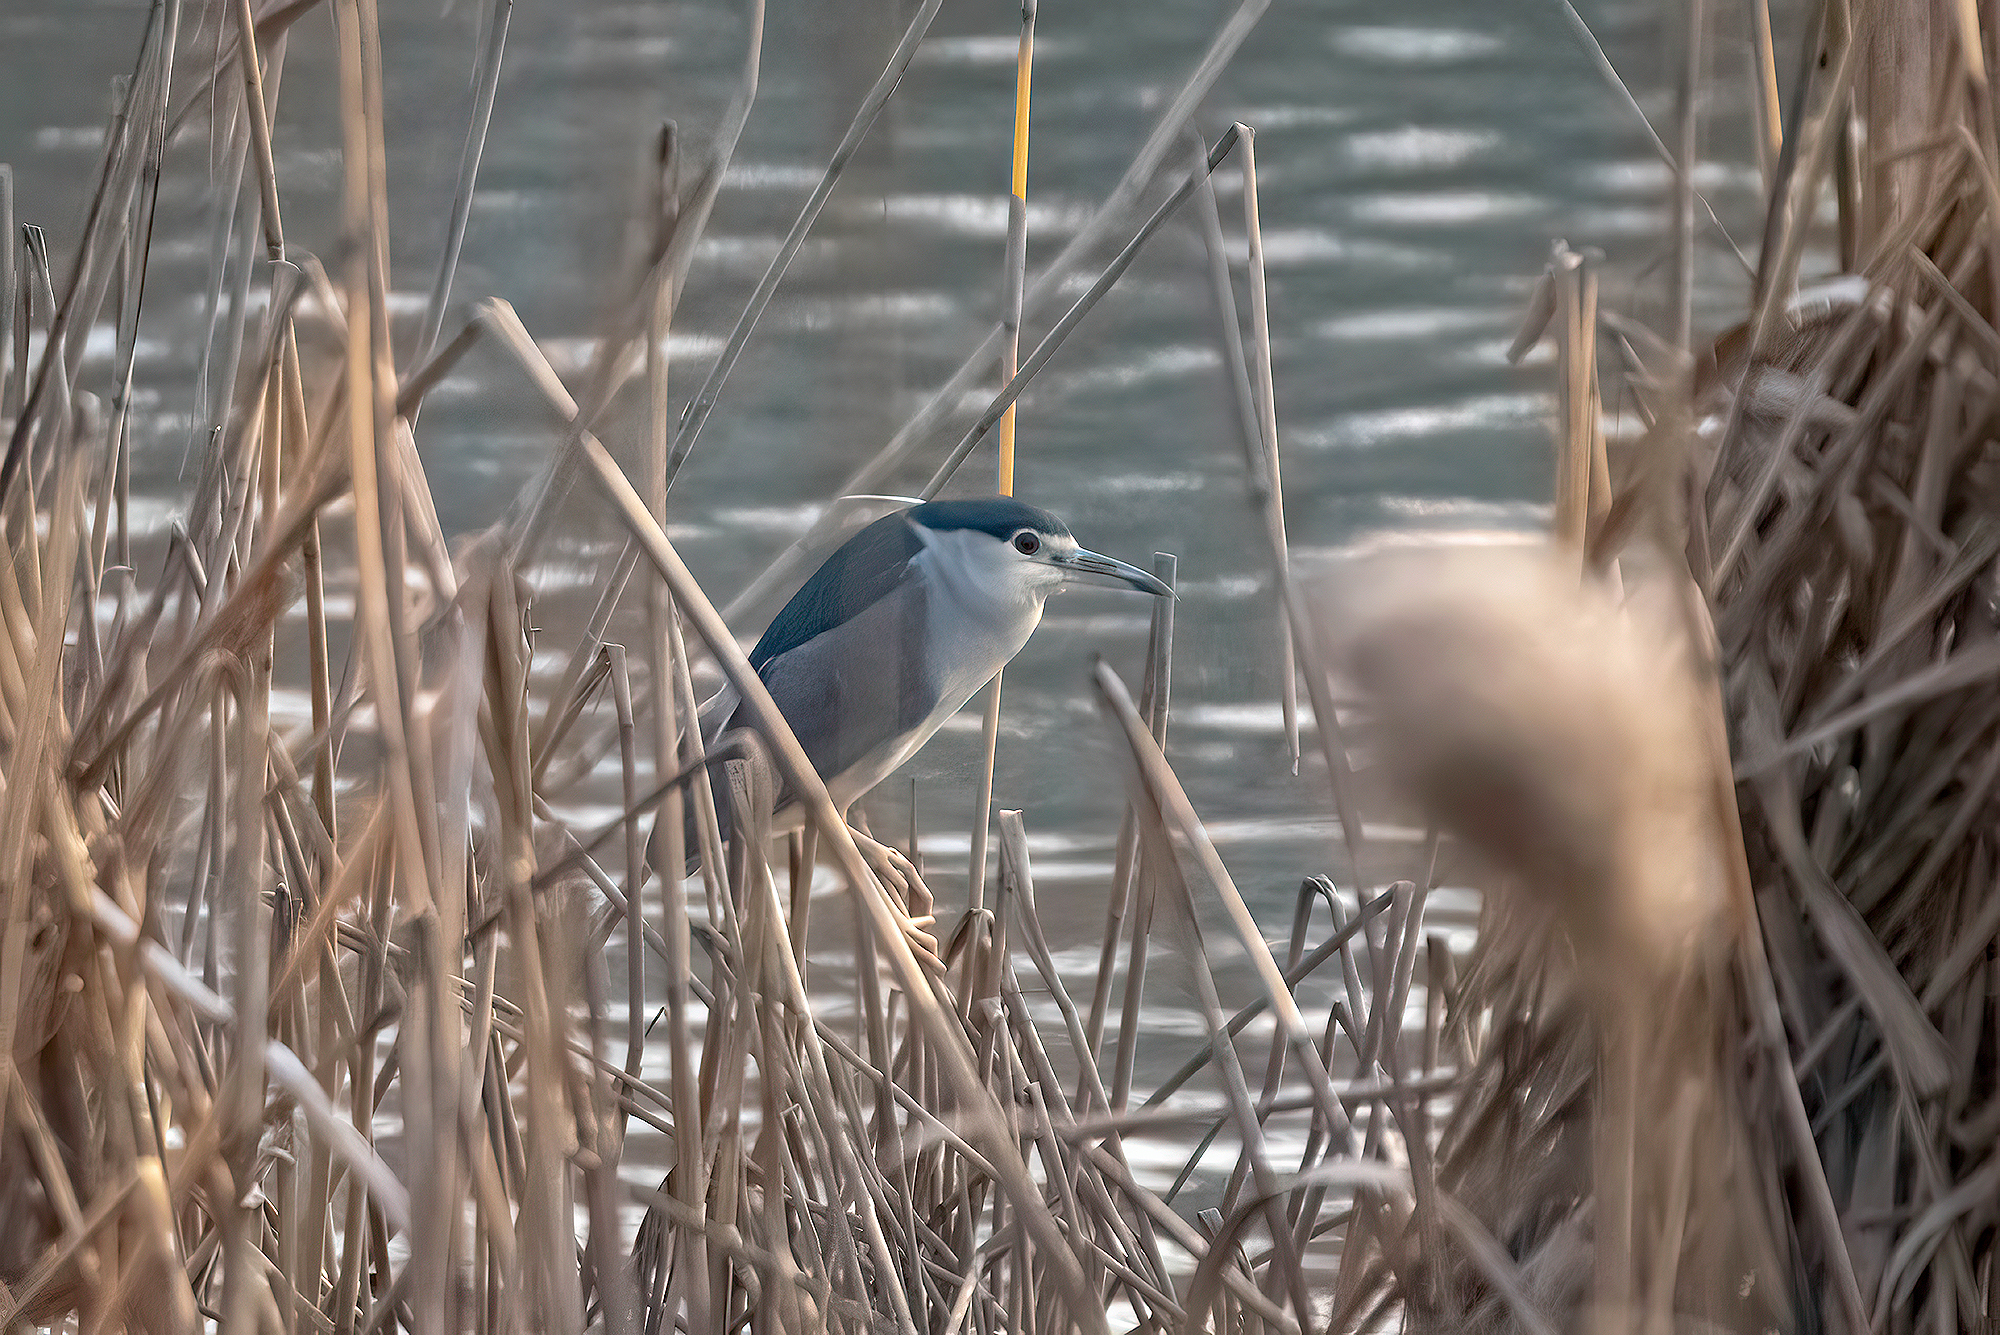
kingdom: Animalia
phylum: Chordata
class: Aves
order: Pelecaniformes
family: Ardeidae
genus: Nycticorax
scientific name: Nycticorax nycticorax
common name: Black-crowned night heron
